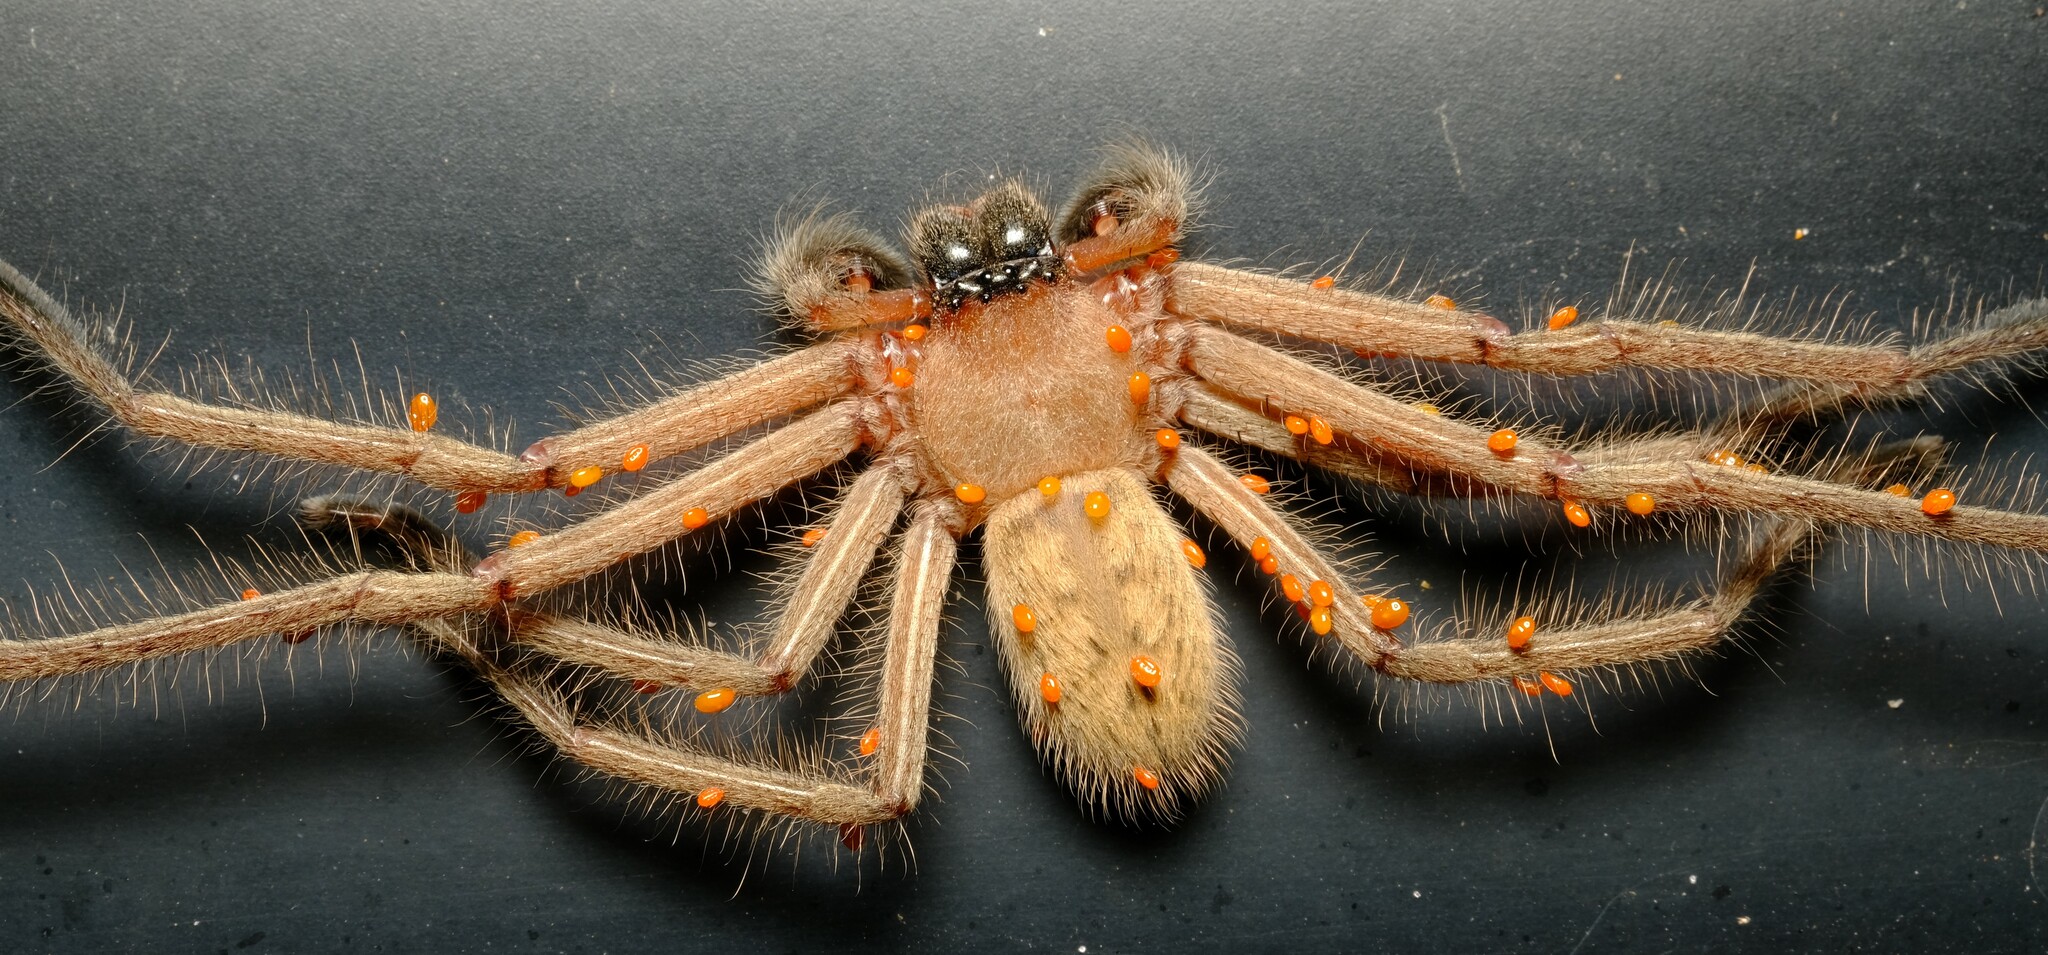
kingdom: Animalia
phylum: Arthropoda
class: Arachnida
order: Araneae
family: Sparassidae
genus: Delena
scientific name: Delena cancerides
